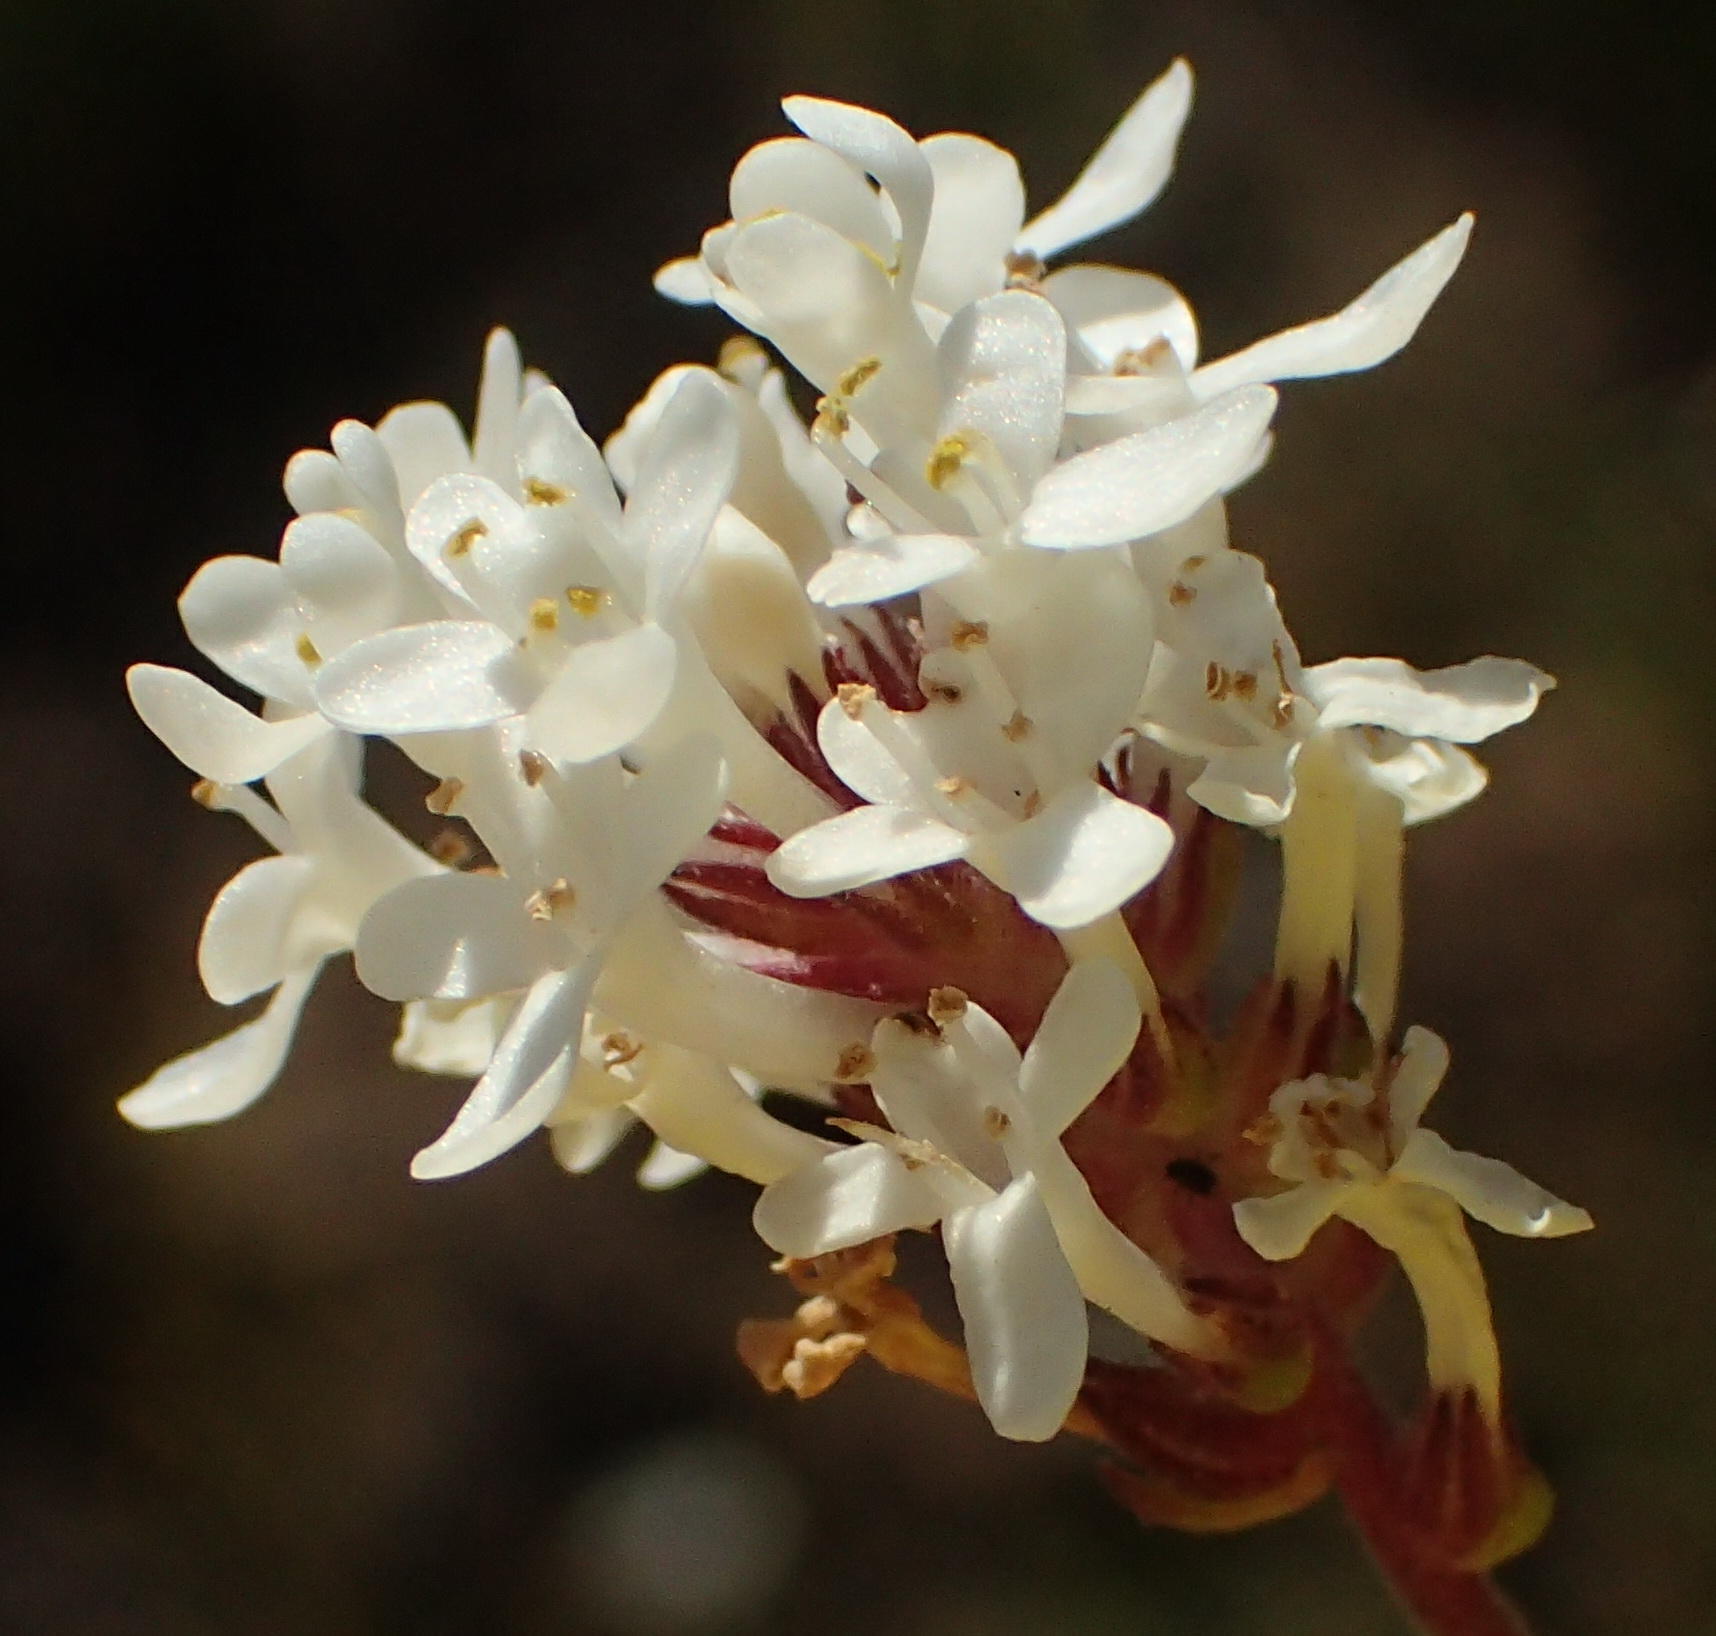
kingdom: Plantae
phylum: Tracheophyta
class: Magnoliopsida
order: Lamiales
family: Scrophulariaceae
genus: Selago
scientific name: Selago brevifolia
